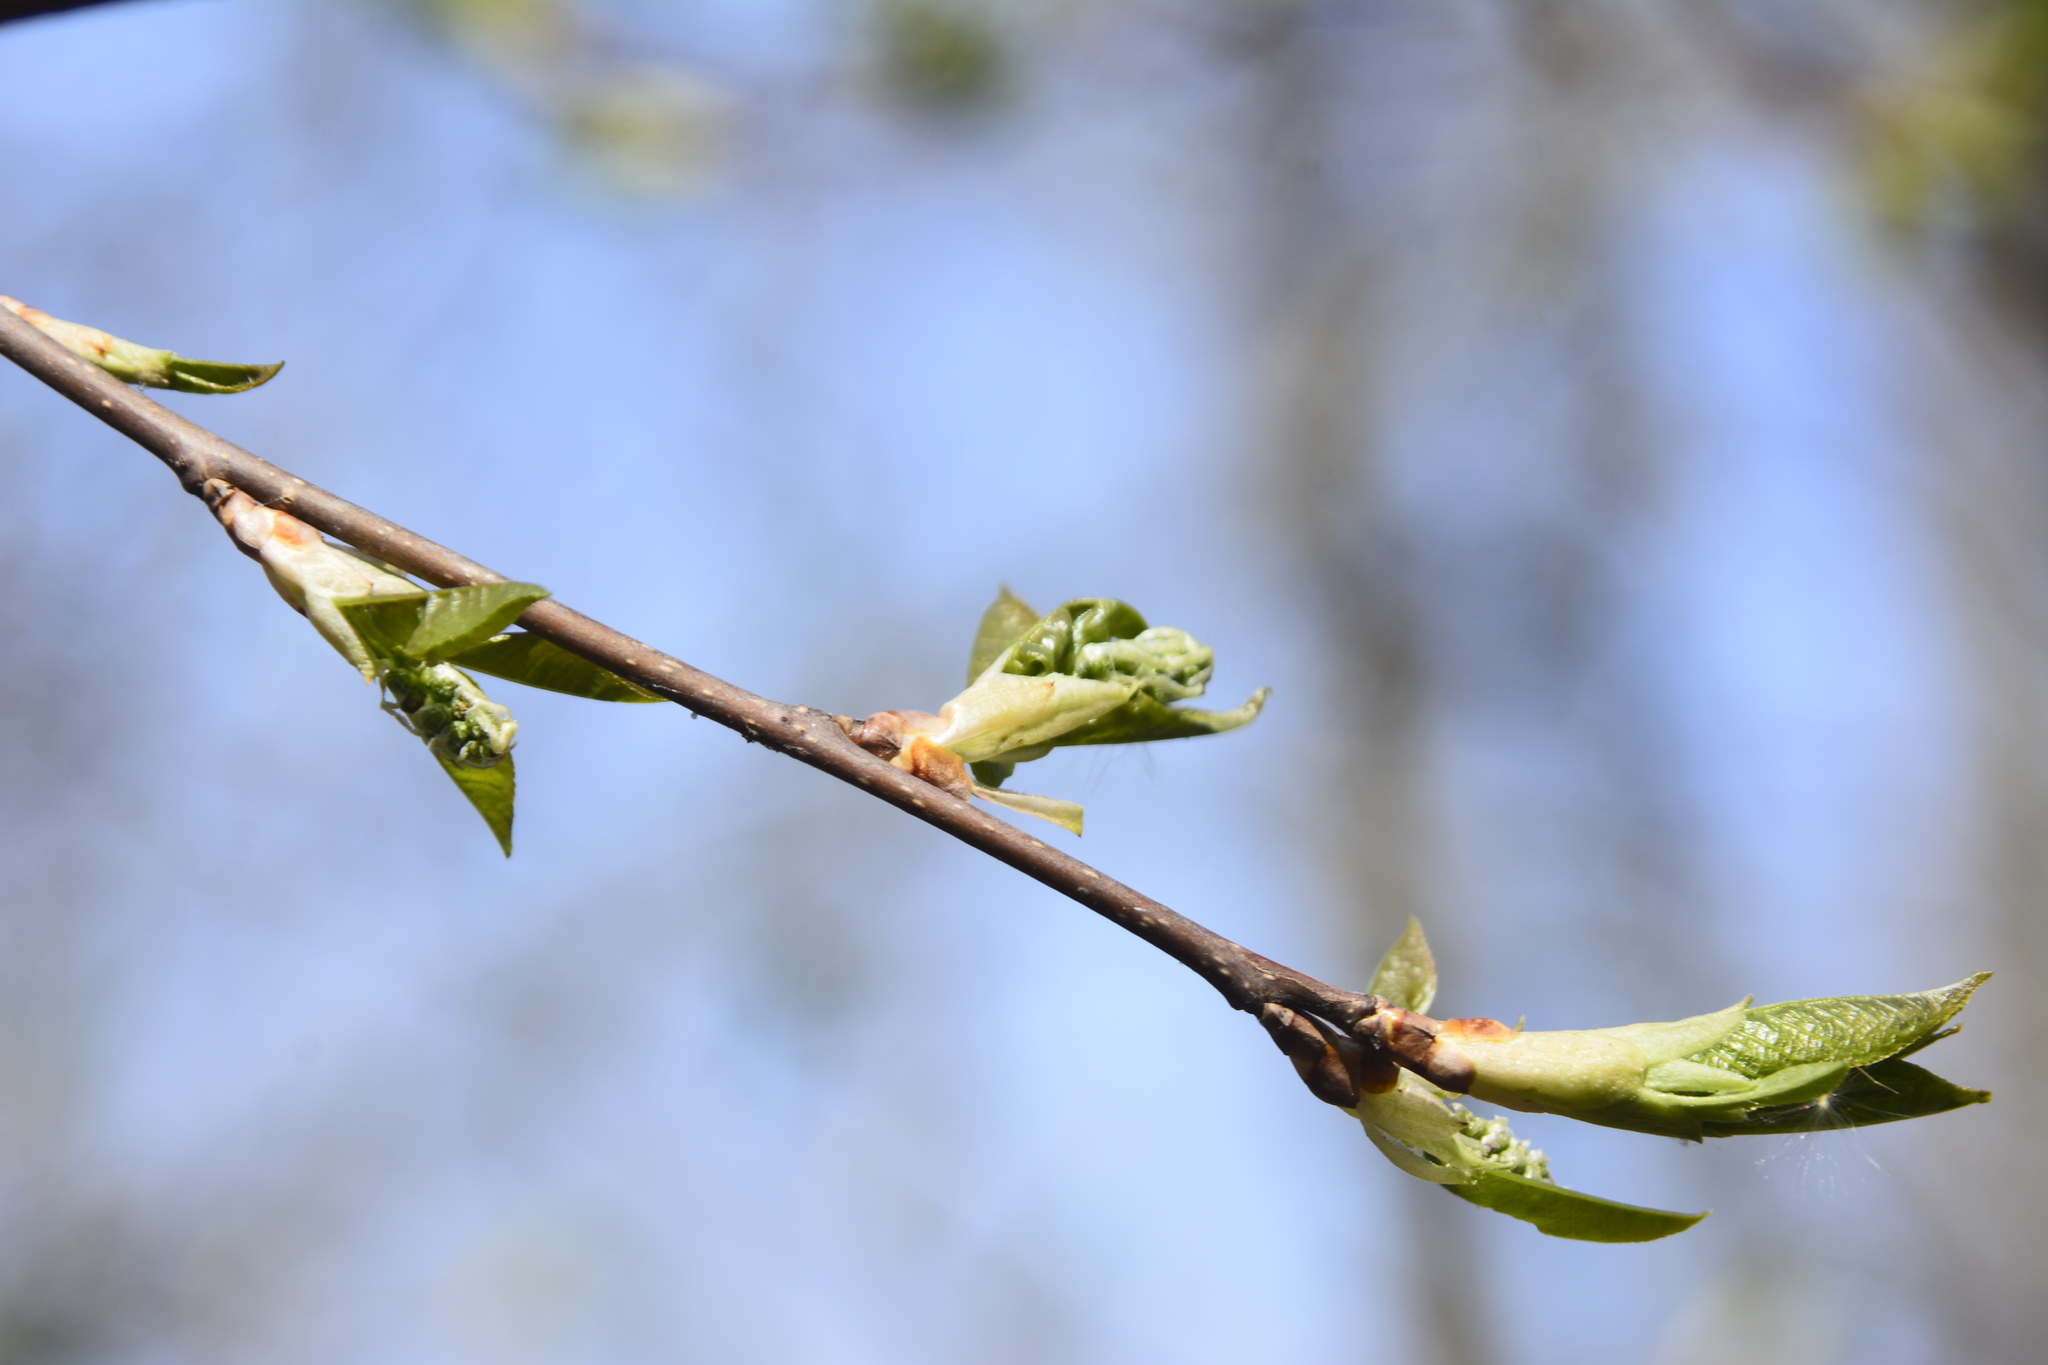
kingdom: Plantae
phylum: Tracheophyta
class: Magnoliopsida
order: Rosales
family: Rosaceae
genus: Prunus
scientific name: Prunus padus
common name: Bird cherry
